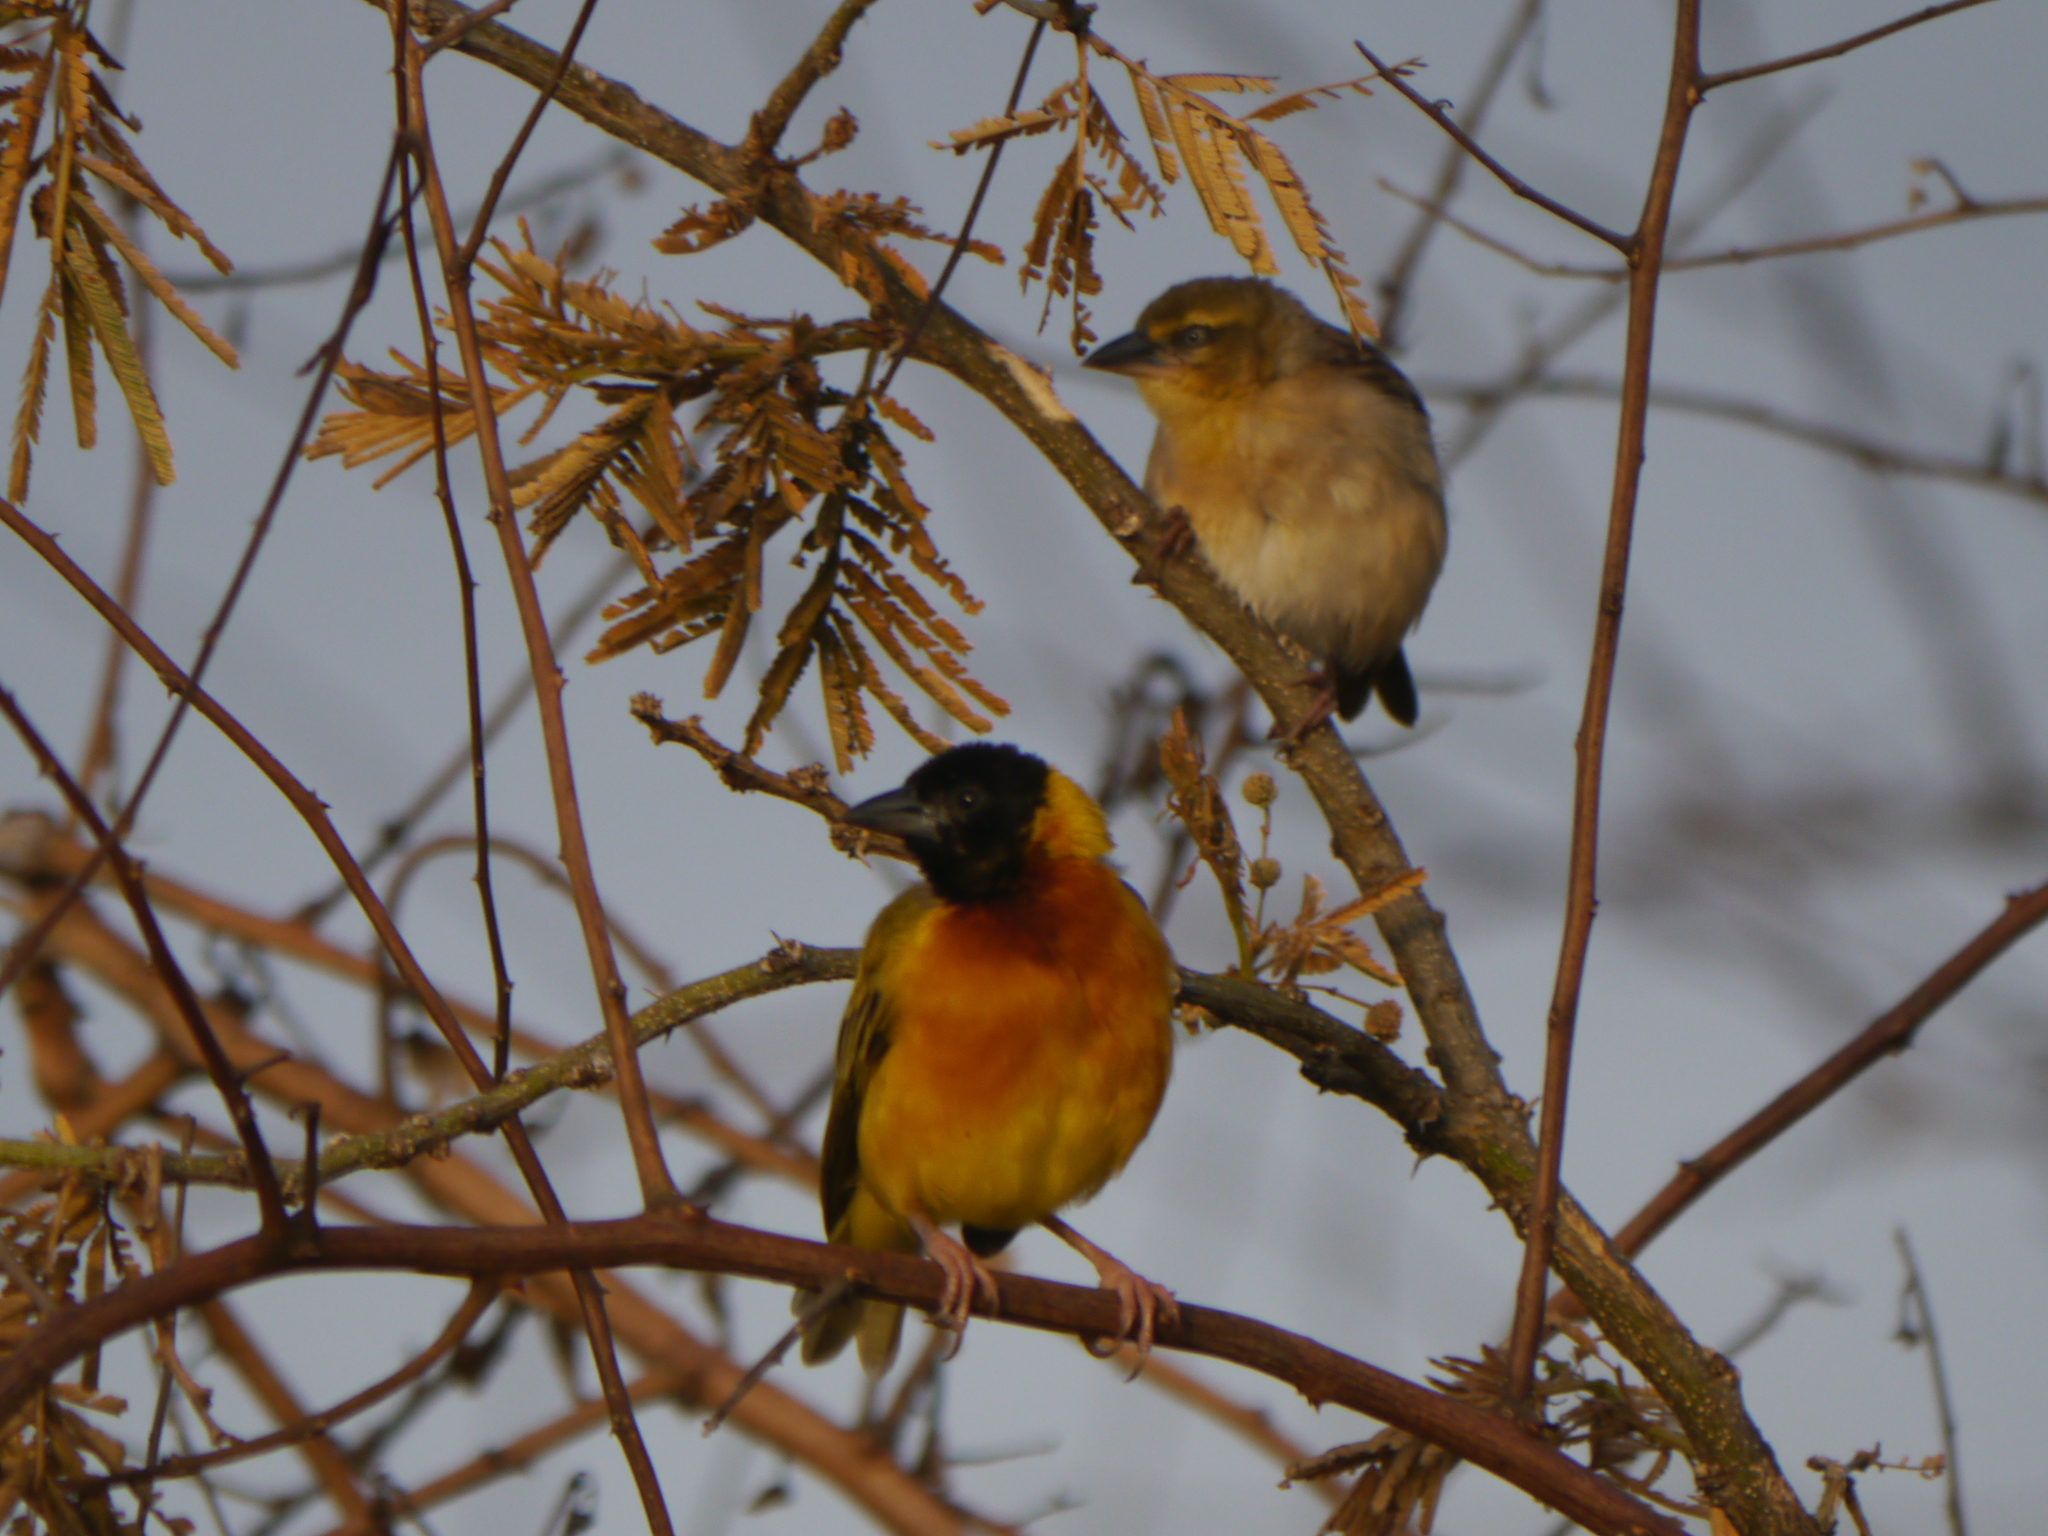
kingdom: Animalia
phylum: Chordata
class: Aves
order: Passeriformes
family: Ploceidae
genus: Ploceus
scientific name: Ploceus melanocephalus
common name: Black-headed weaver
